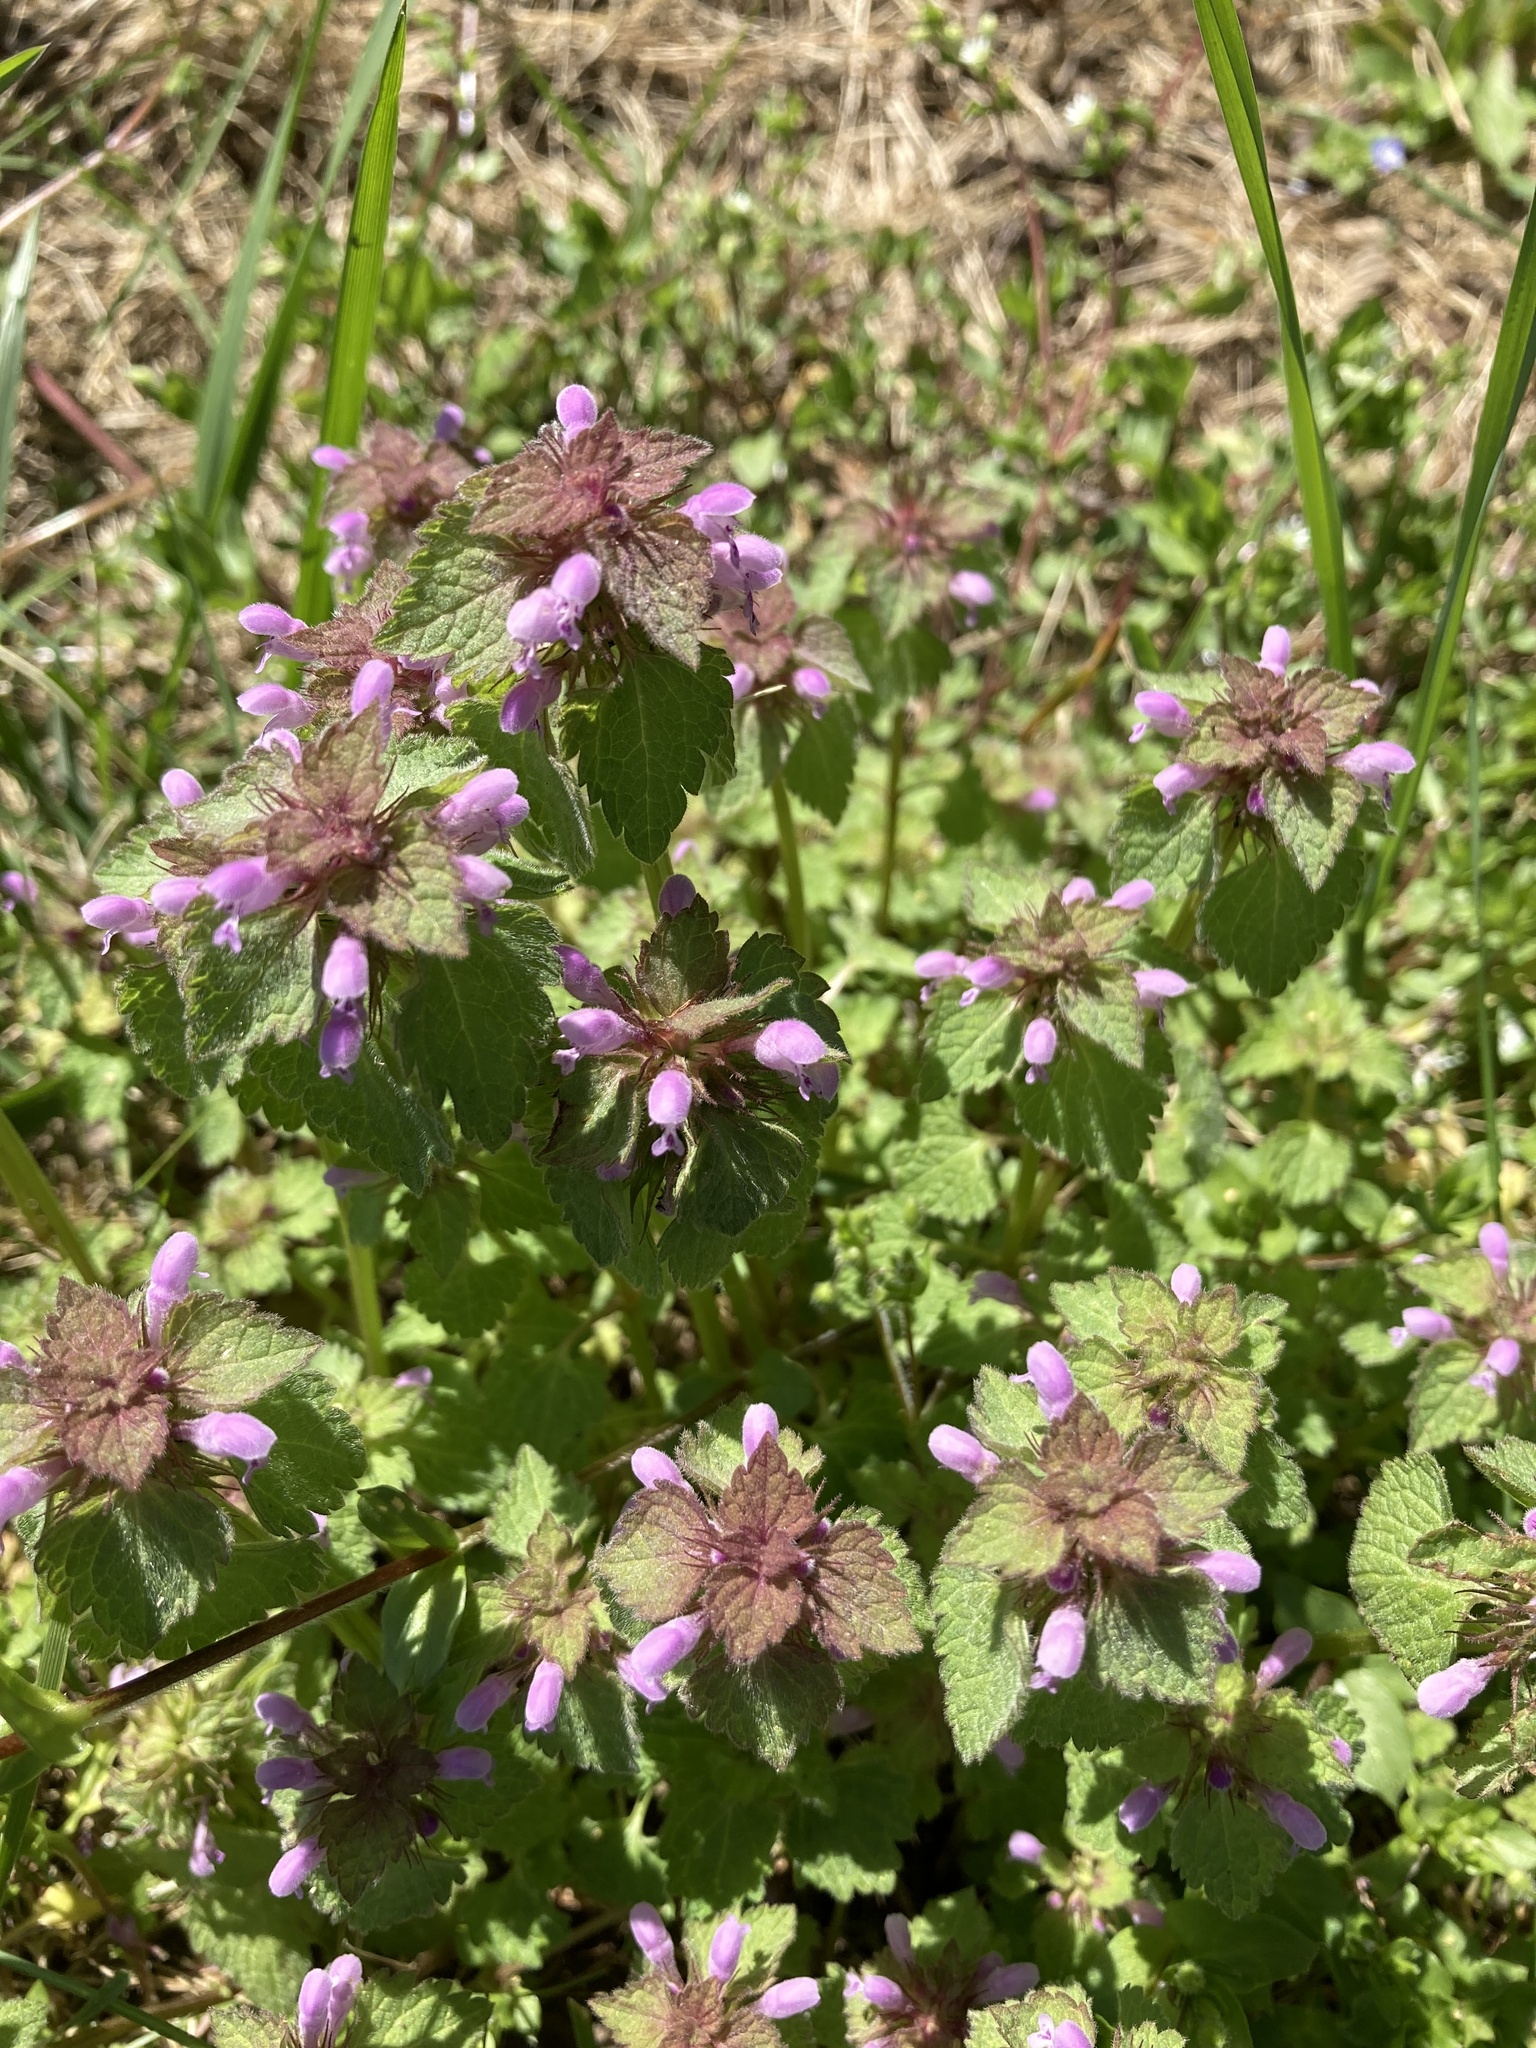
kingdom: Plantae
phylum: Tracheophyta
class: Magnoliopsida
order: Lamiales
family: Lamiaceae
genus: Lamium
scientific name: Lamium purpureum
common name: Red dead-nettle
